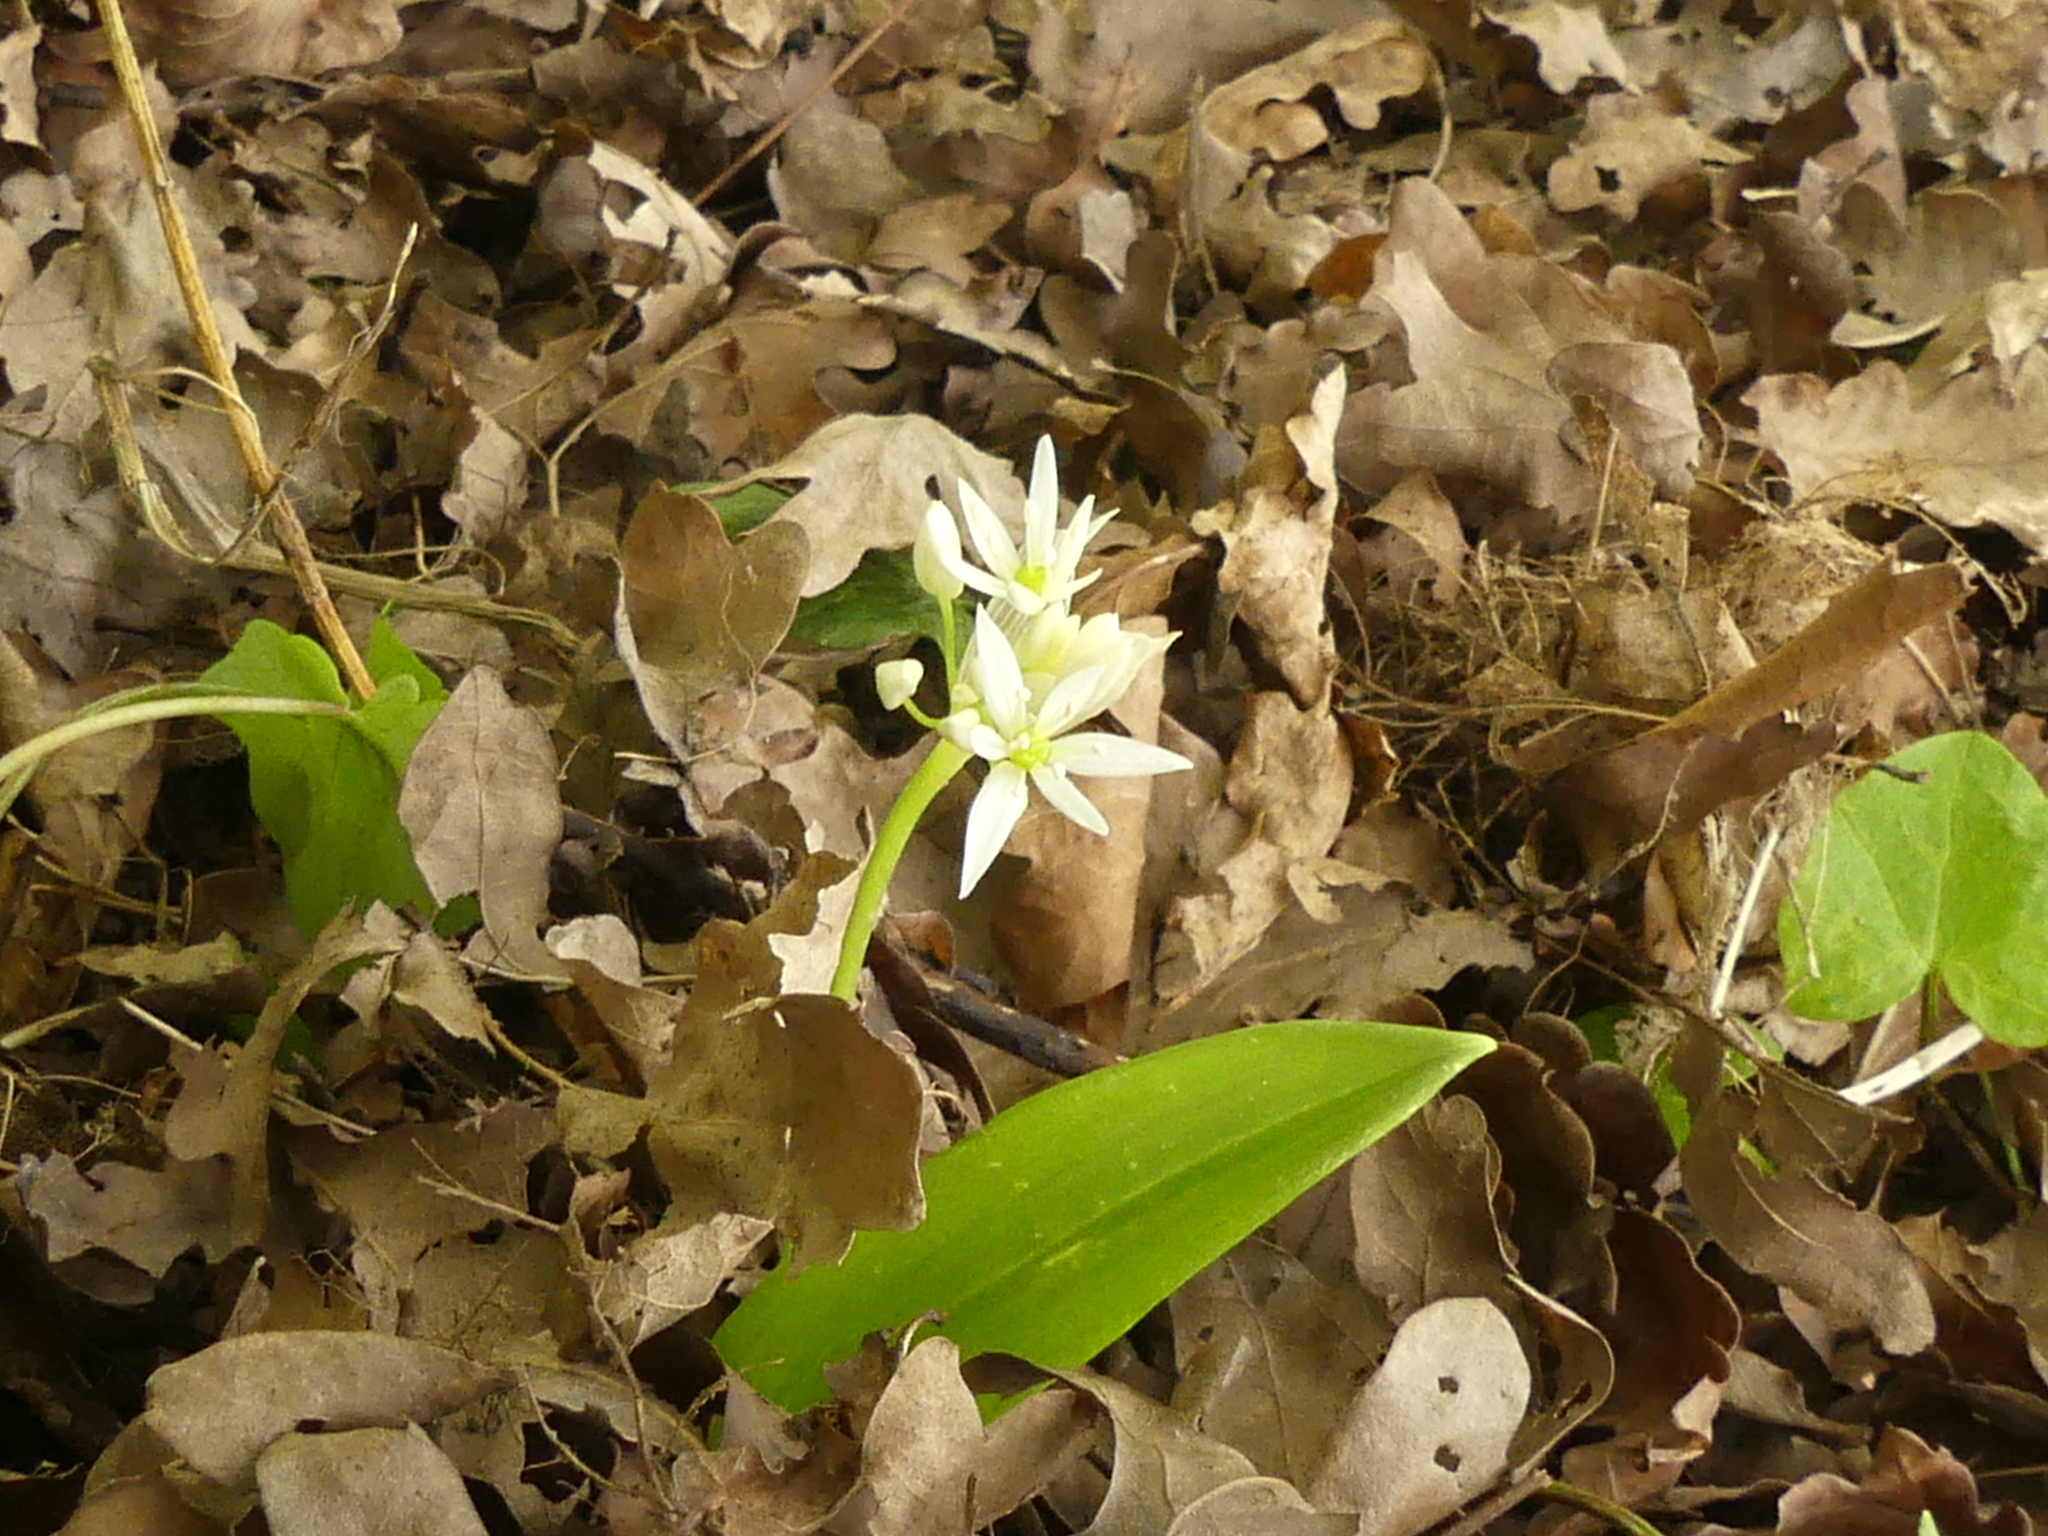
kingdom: Plantae
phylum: Tracheophyta
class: Liliopsida
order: Asparagales
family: Amaryllidaceae
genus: Allium
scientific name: Allium ursinum
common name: Ramsons
